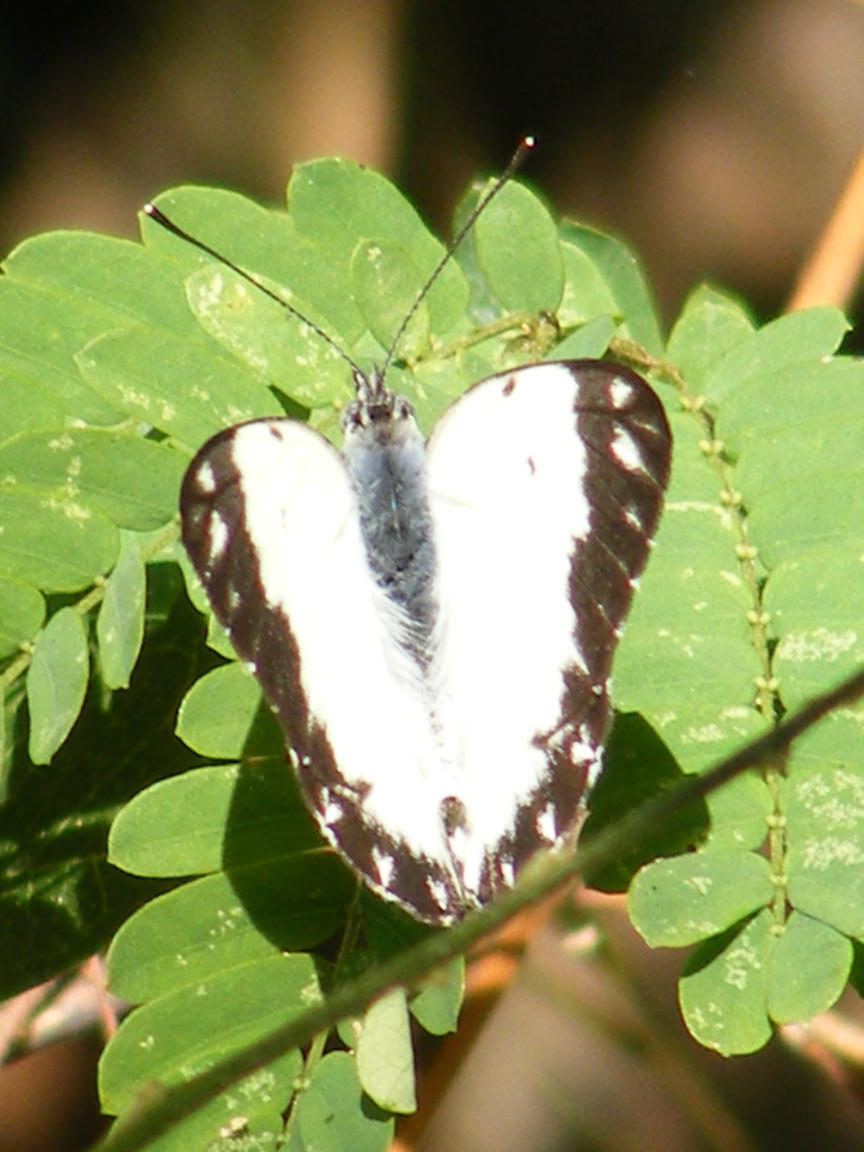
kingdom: Animalia
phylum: Arthropoda
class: Insecta
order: Lepidoptera
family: Pieridae
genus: Belenois
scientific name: Belenois creona
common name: African caper white
